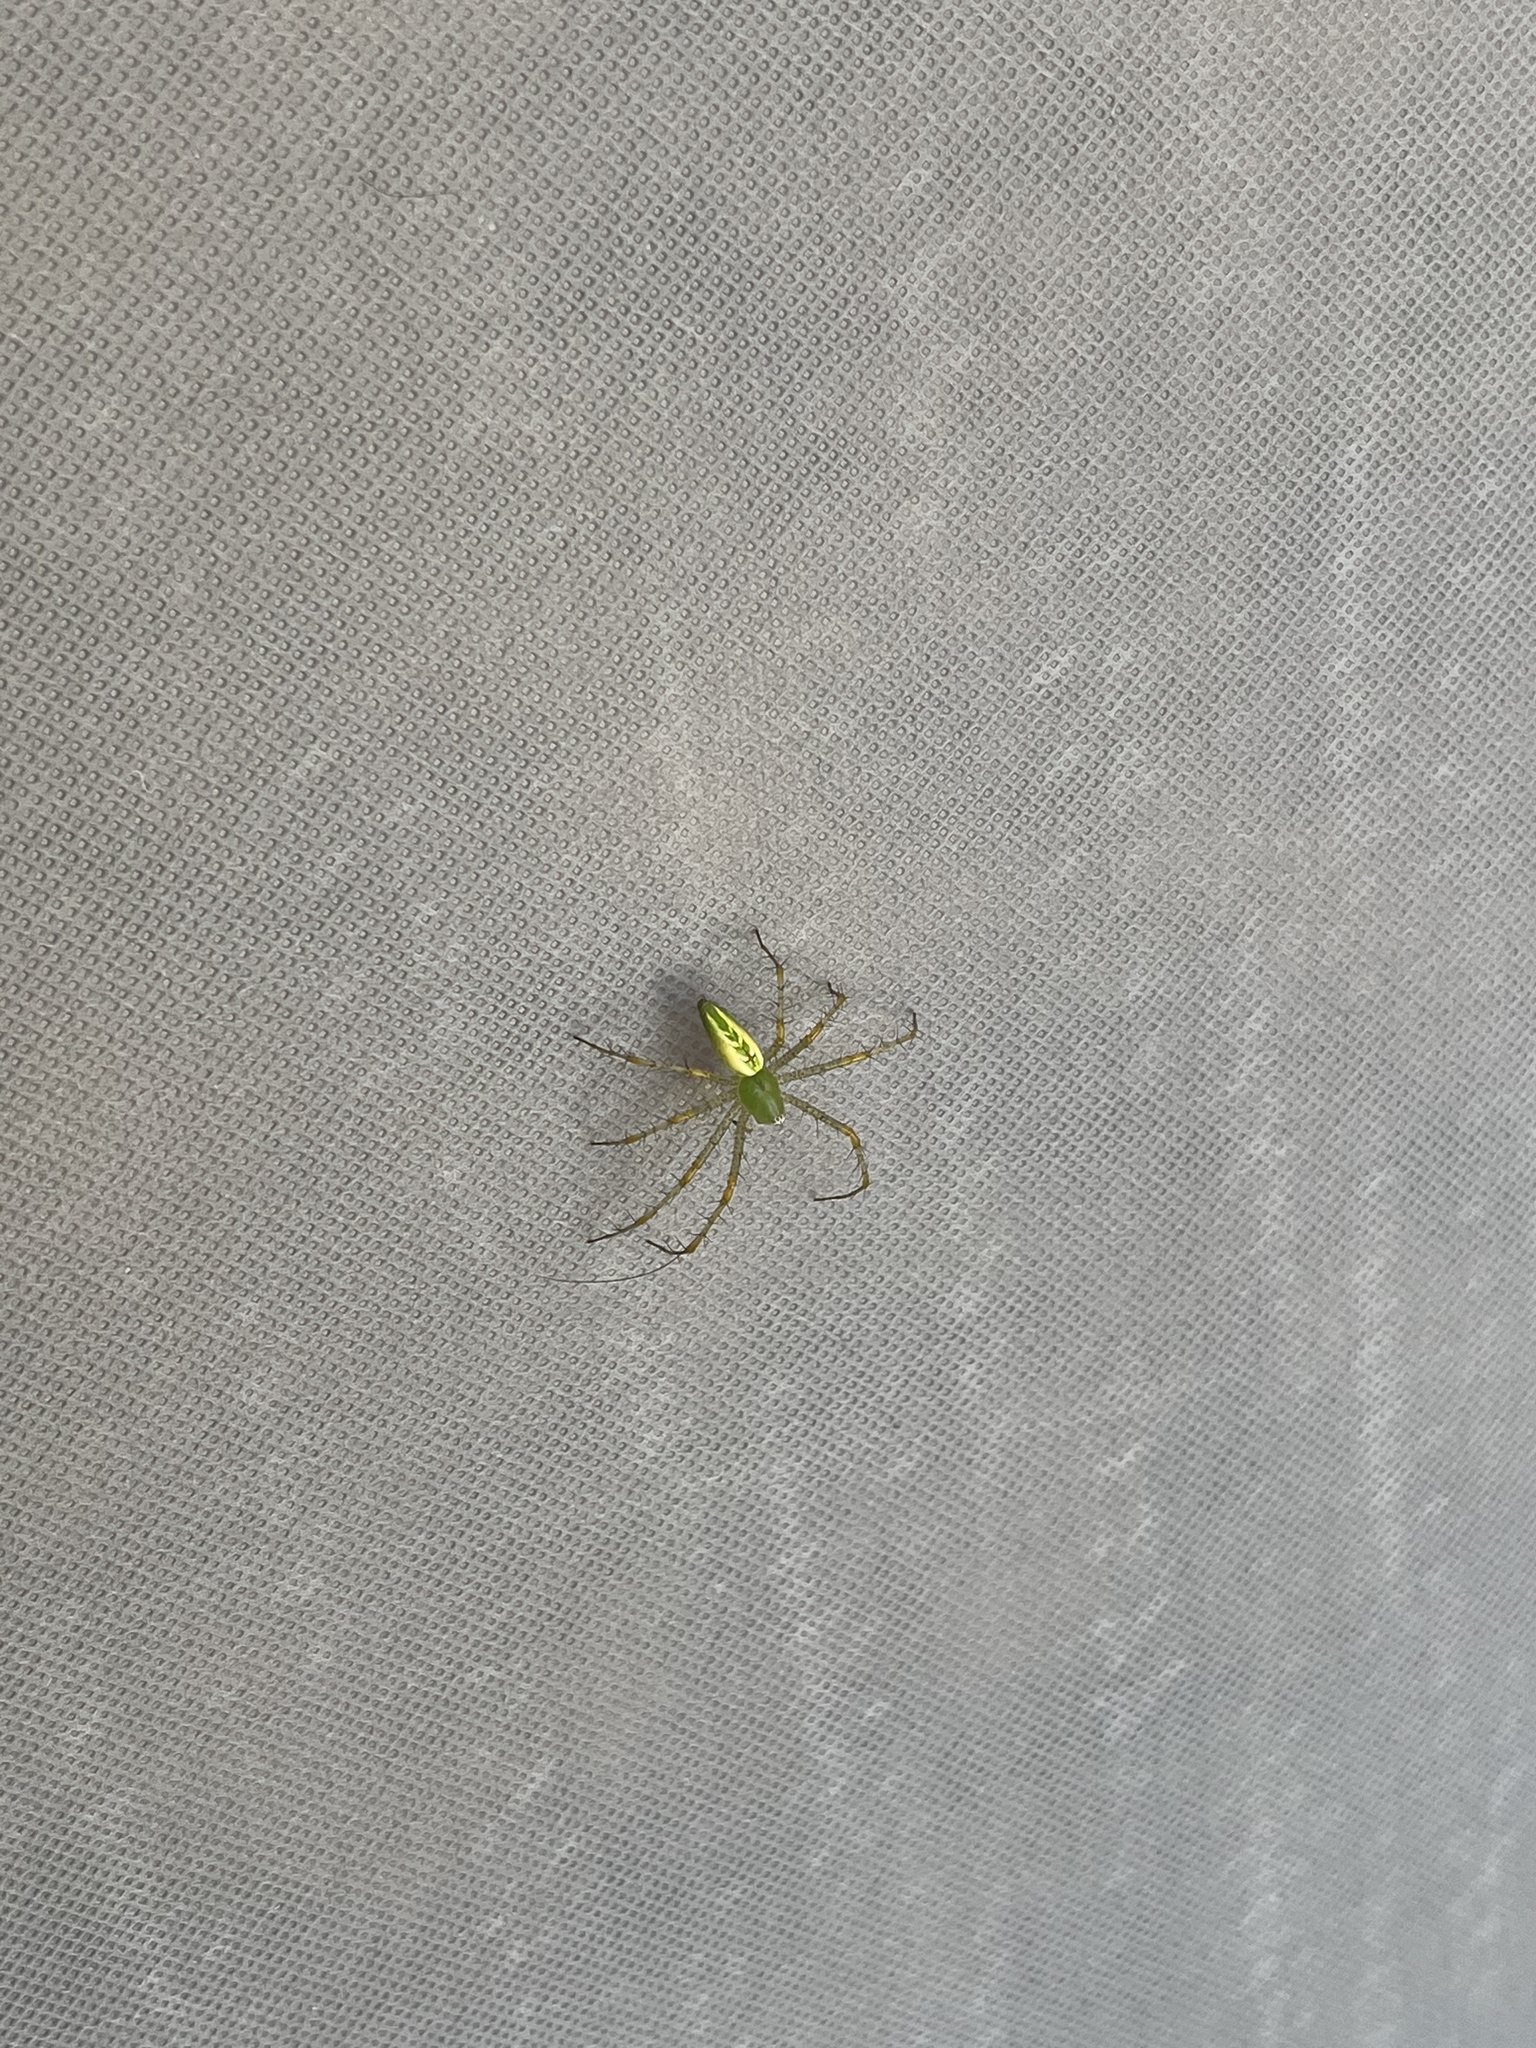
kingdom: Animalia
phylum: Arthropoda
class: Arachnida
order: Araneae
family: Oxyopidae
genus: Peucetia
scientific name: Peucetia viridans
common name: Lynx spiders
